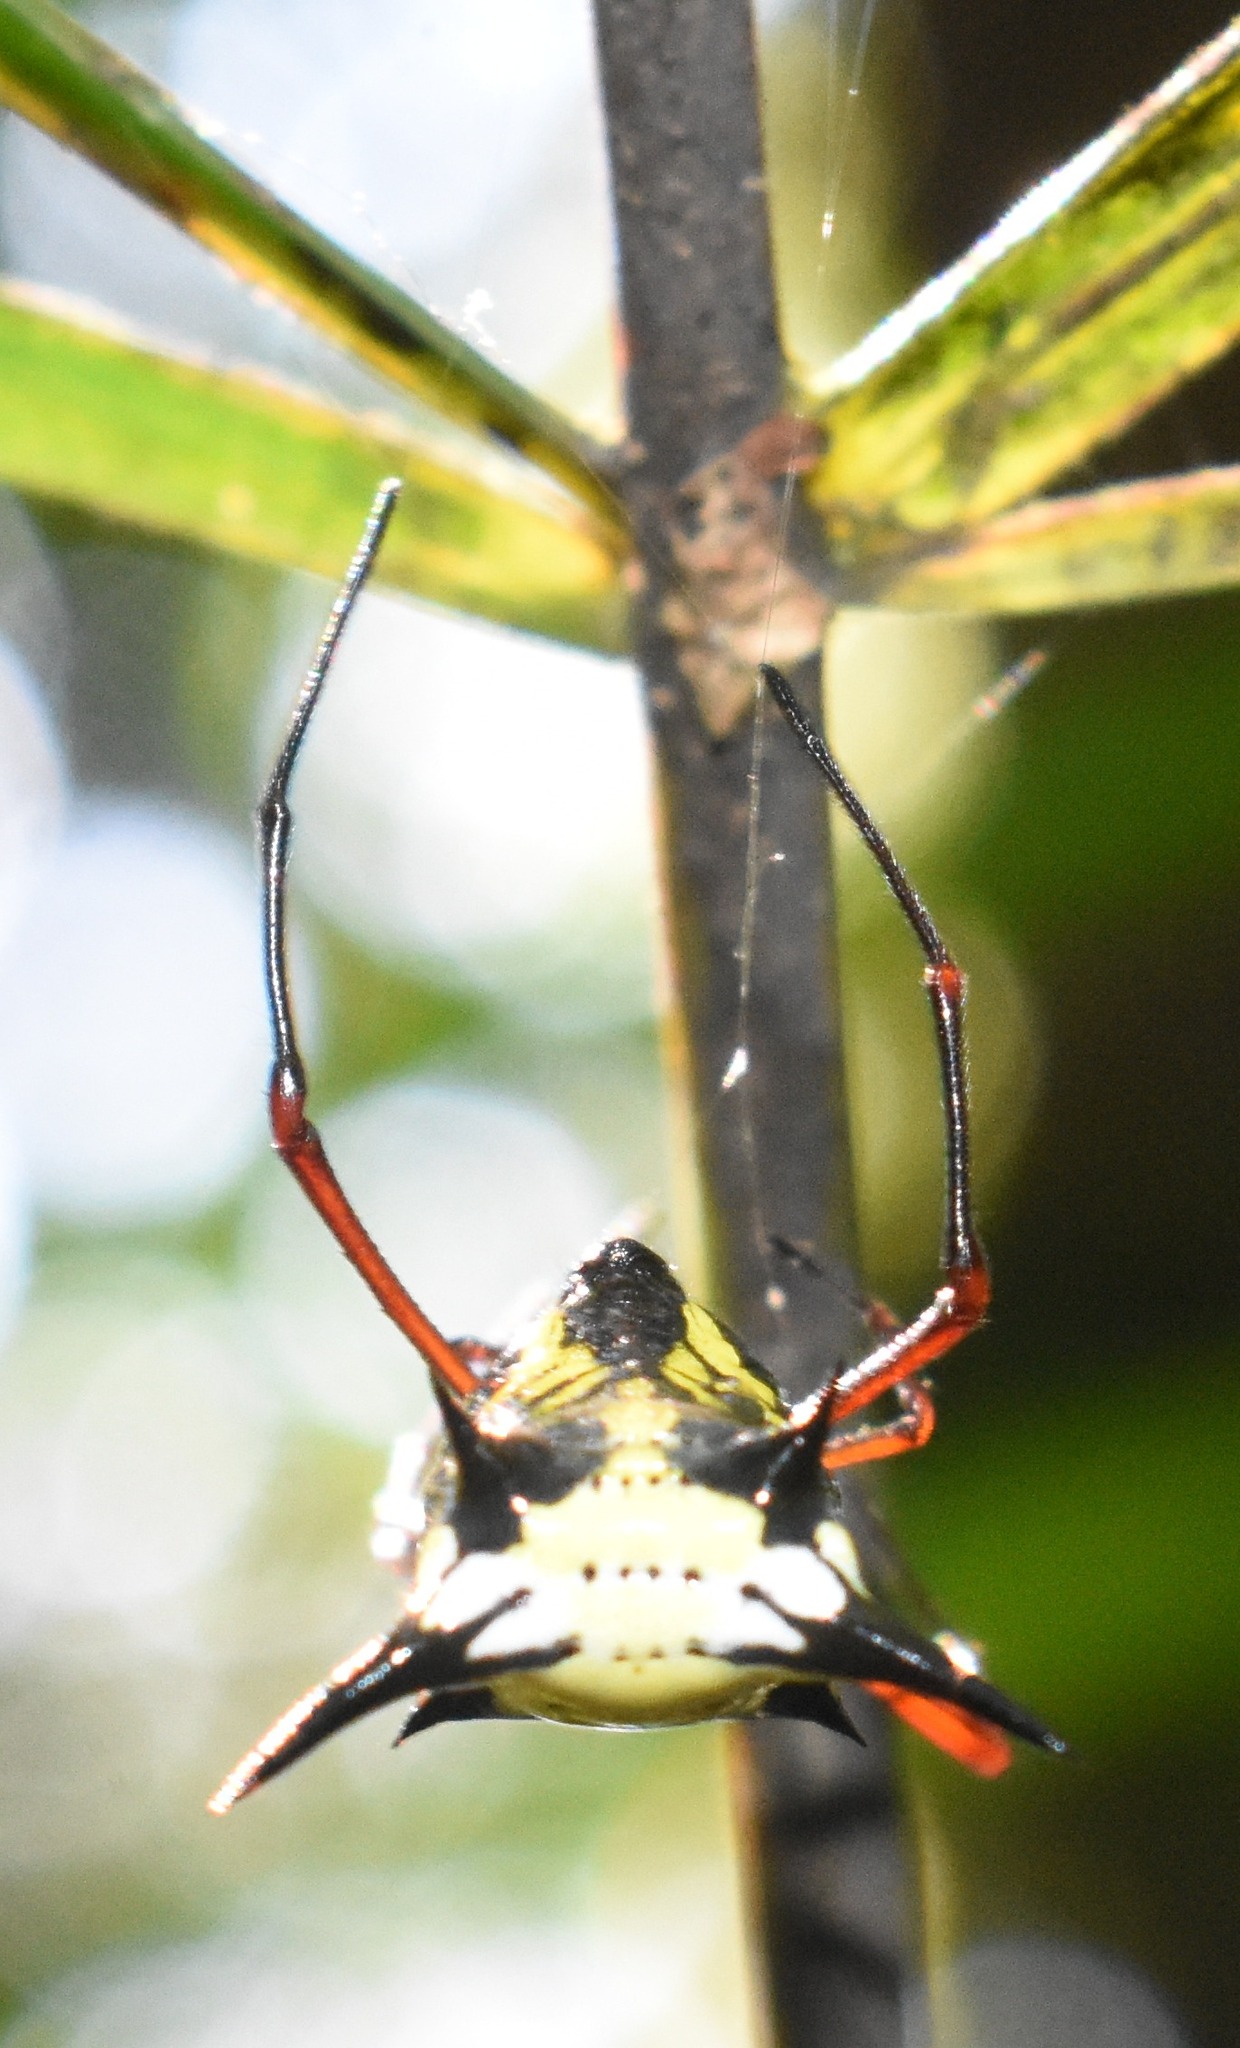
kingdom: Animalia
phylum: Arthropoda
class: Arachnida
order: Araneae
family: Araneidae
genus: Micrathena
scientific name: Micrathena miles
